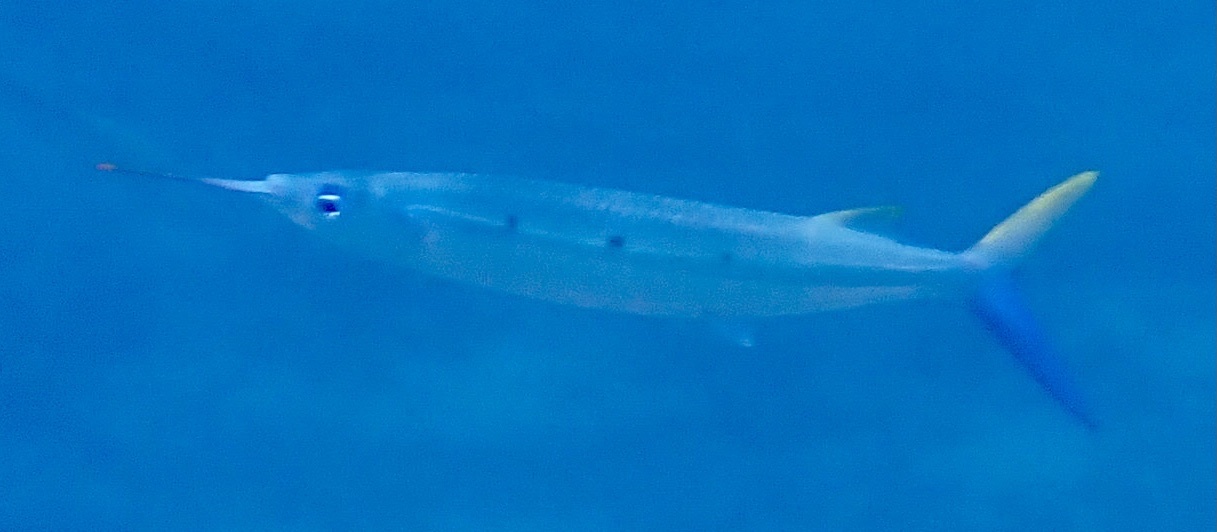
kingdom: Animalia
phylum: Chordata
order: Beloniformes
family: Hemiramphidae
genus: Hemiramphus
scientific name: Hemiramphus far
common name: Black-barred halfbeak
